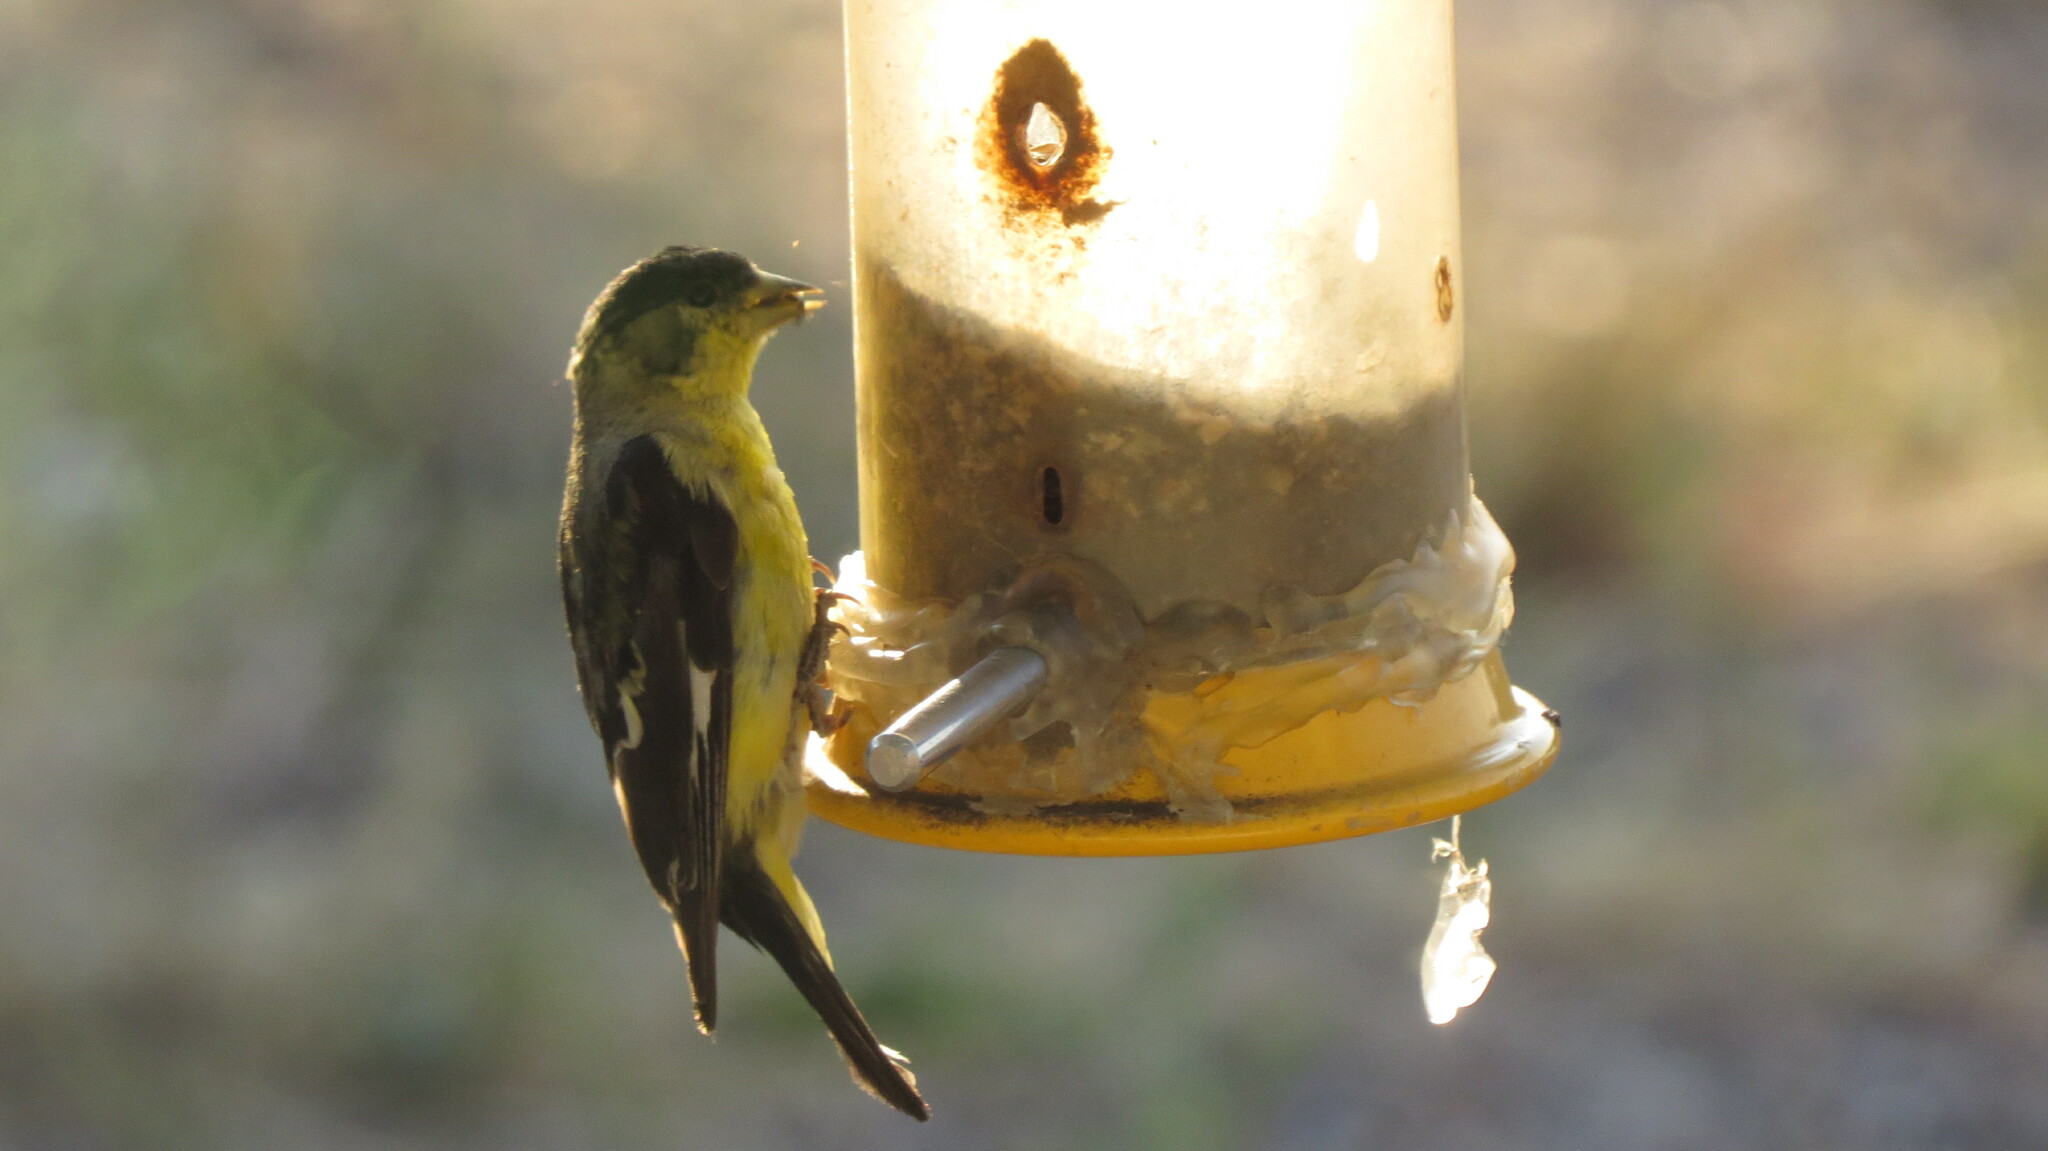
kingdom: Animalia
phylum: Chordata
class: Aves
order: Passeriformes
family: Fringillidae
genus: Spinus
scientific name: Spinus psaltria
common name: Lesser goldfinch
